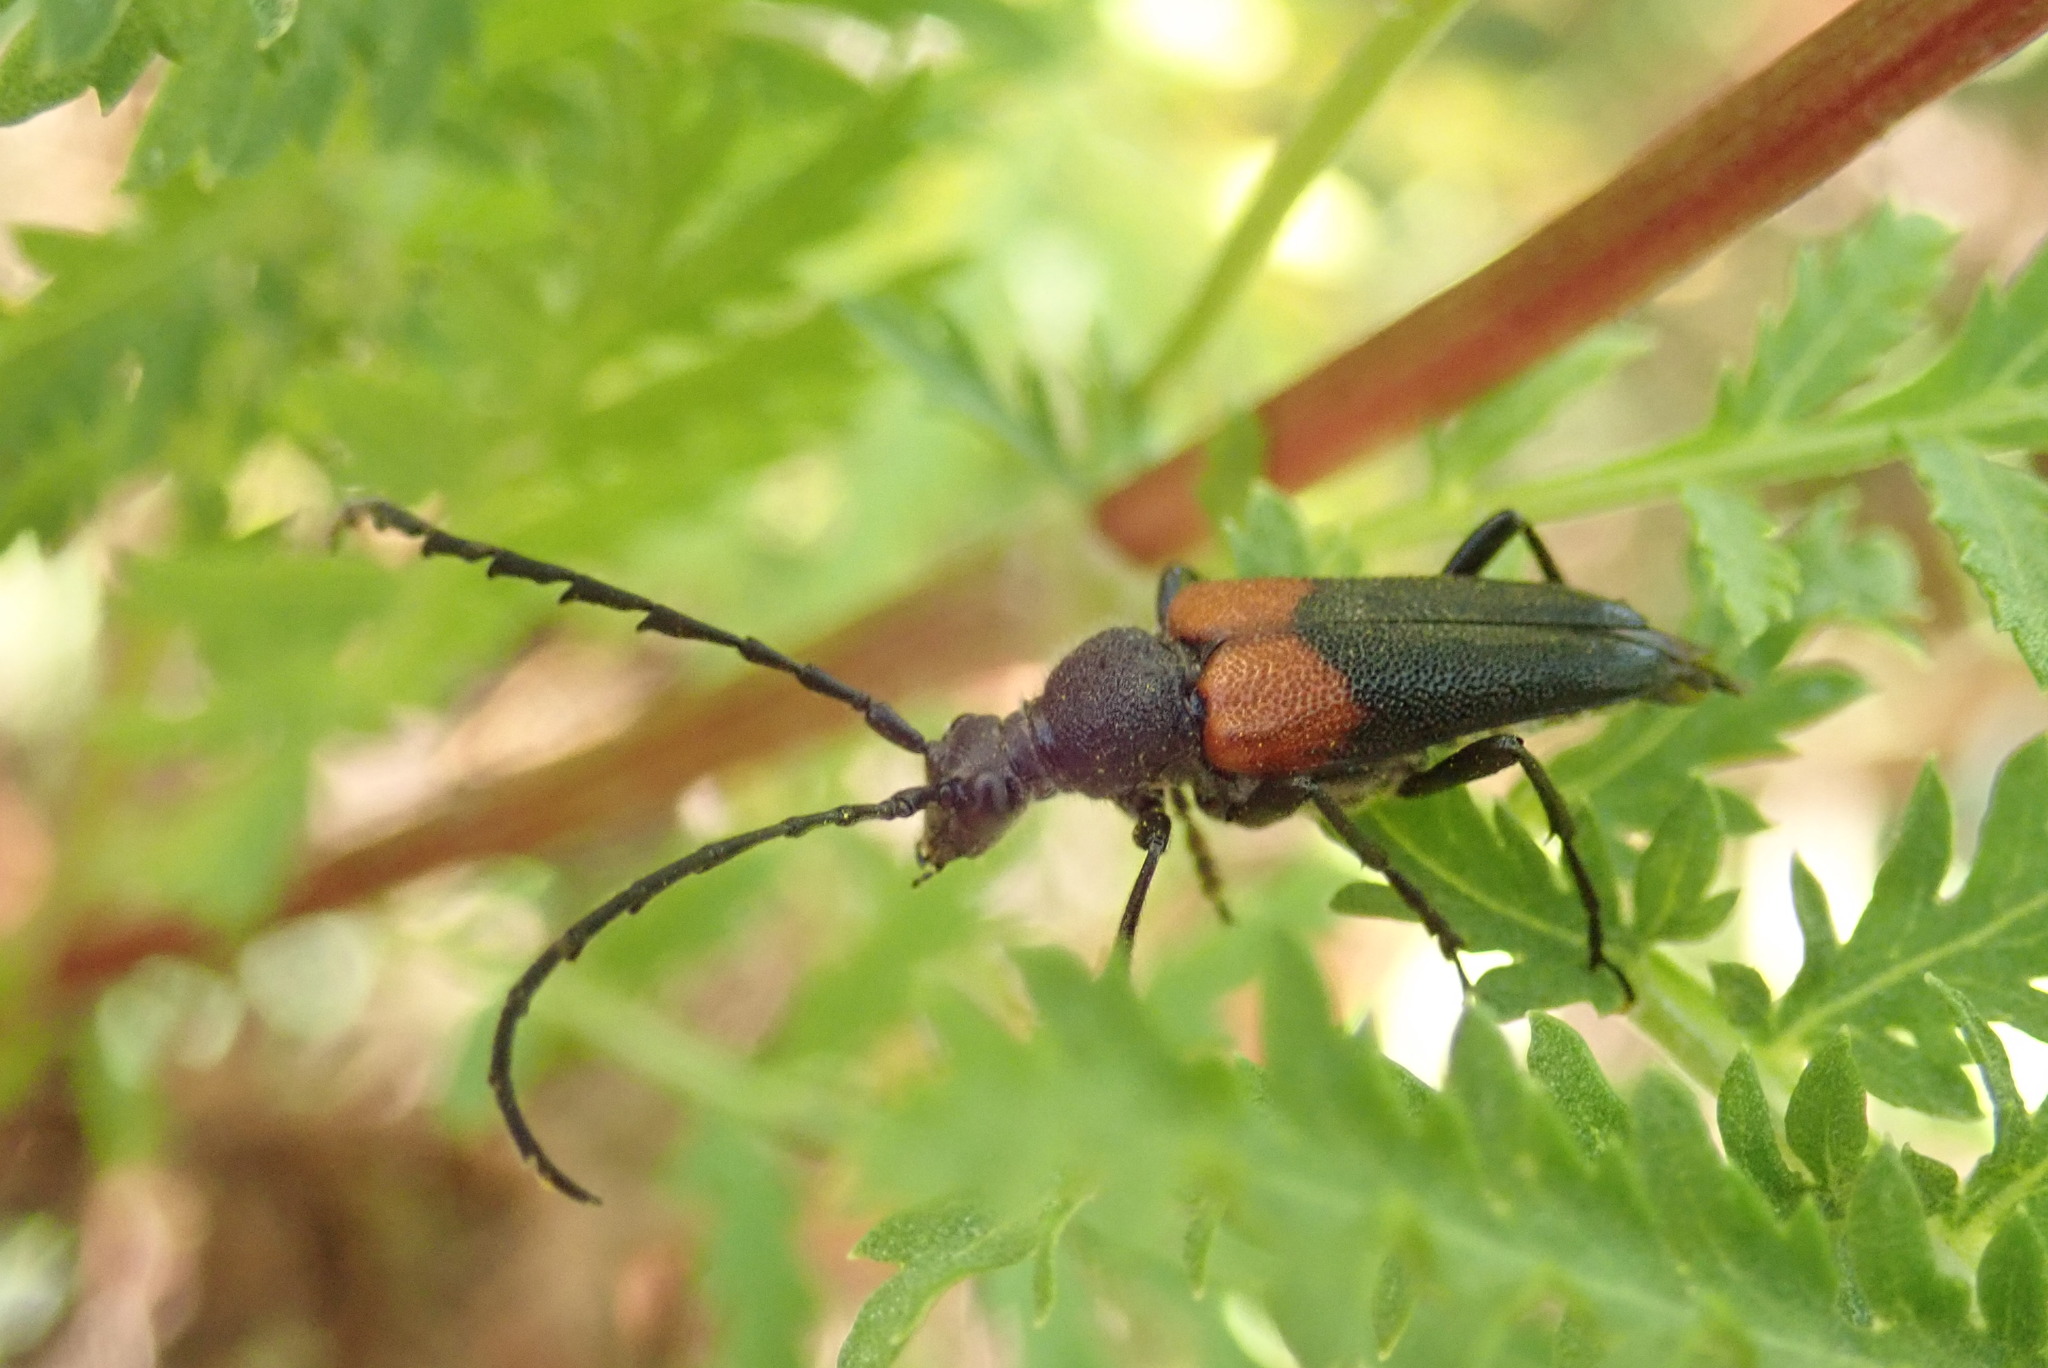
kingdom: Animalia
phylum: Arthropoda
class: Insecta
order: Coleoptera
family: Cerambycidae
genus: Stictoleptura
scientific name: Stictoleptura canadensis
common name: Red-shouldered pine borer
